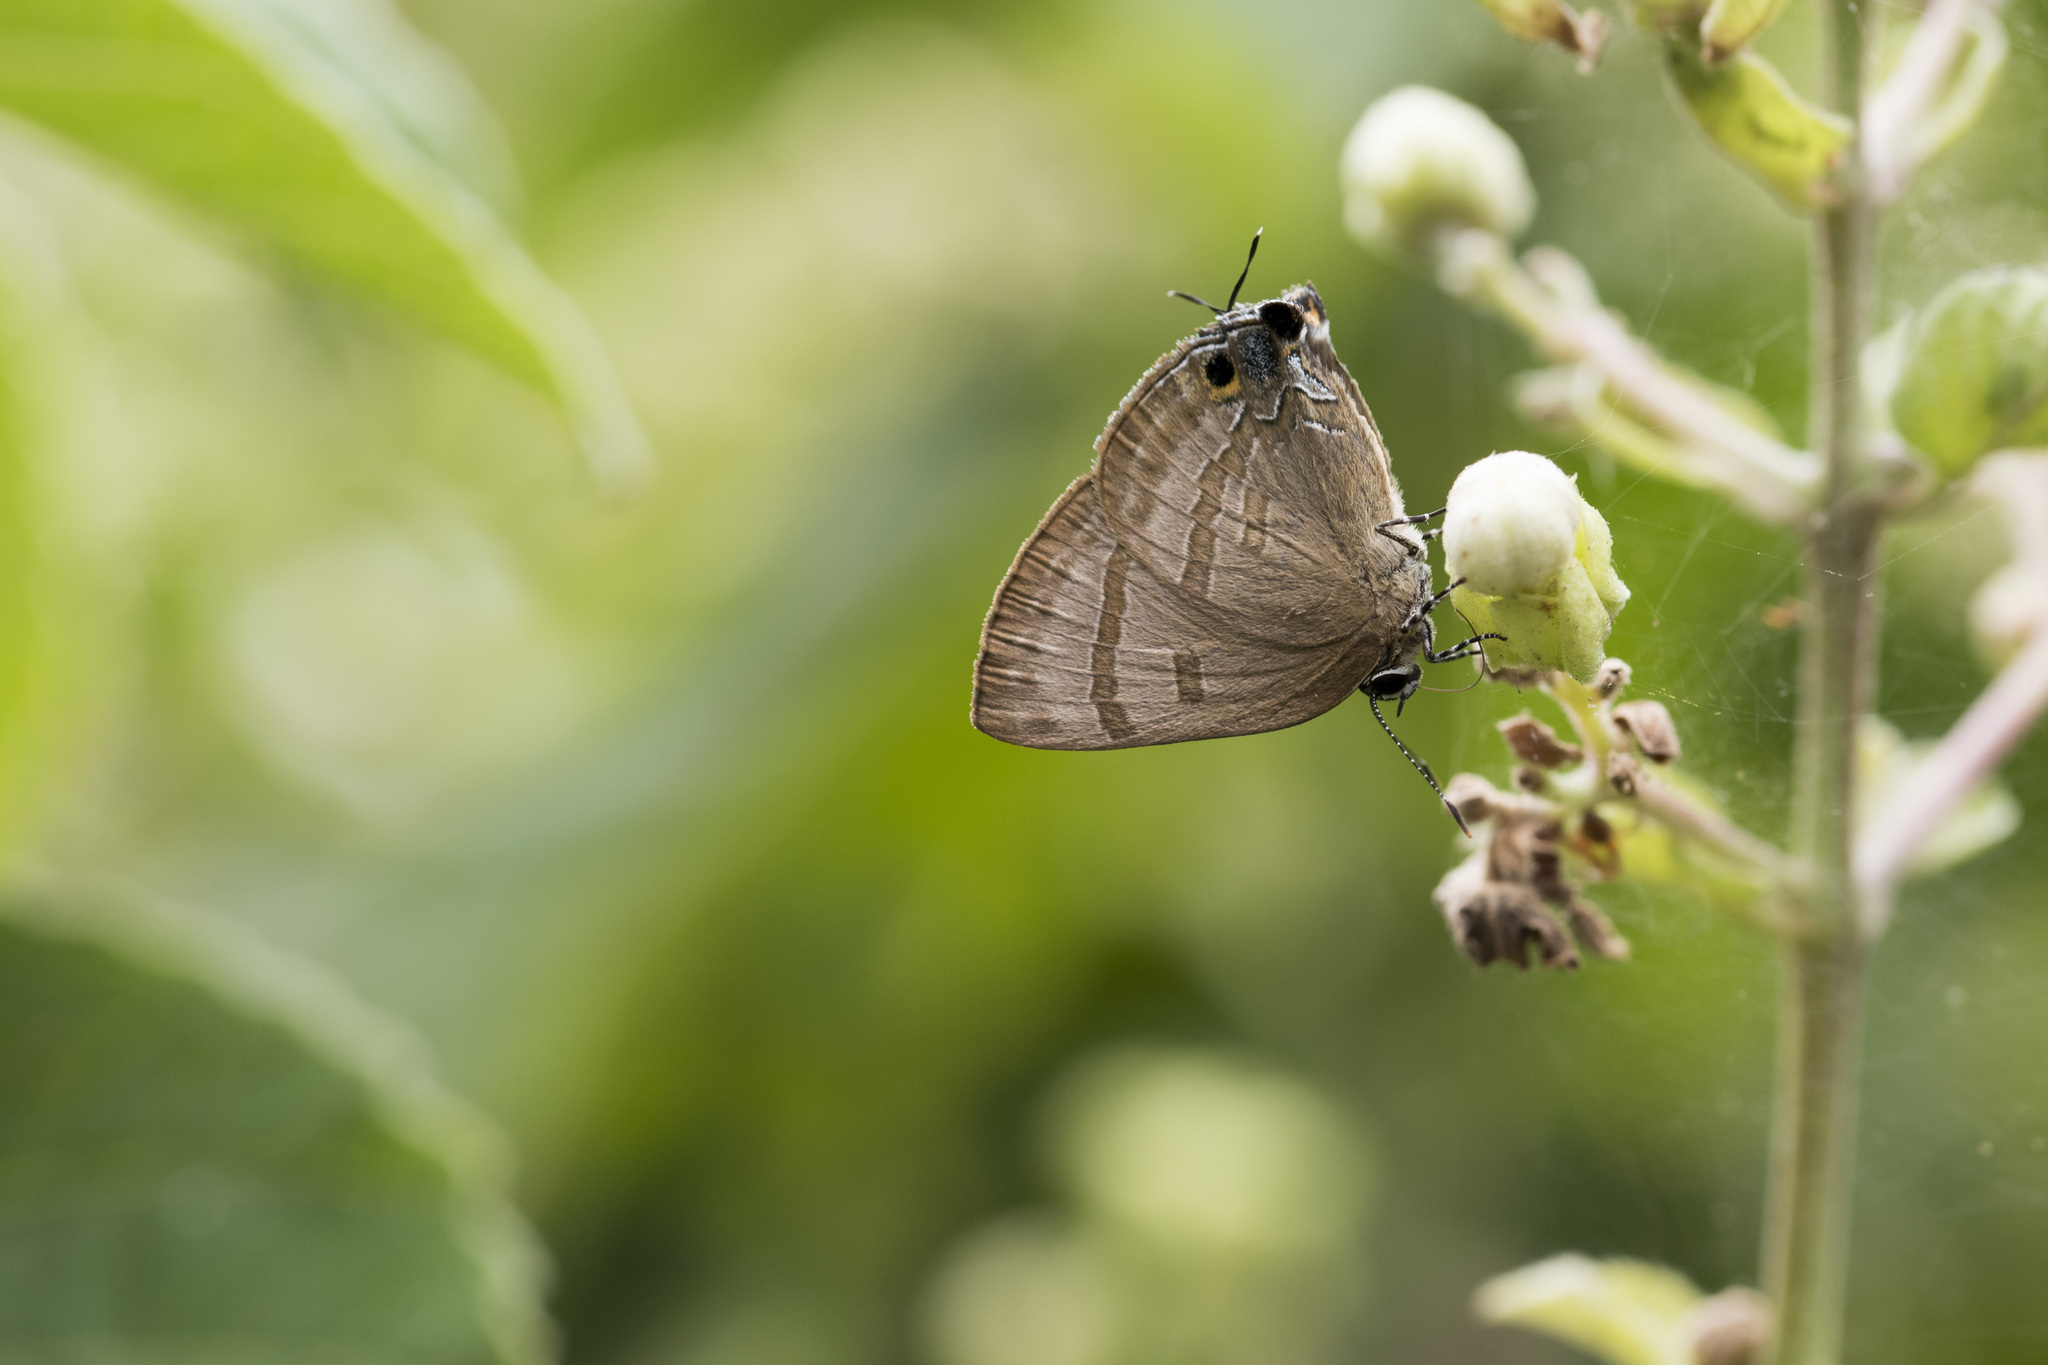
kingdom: Animalia
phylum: Arthropoda
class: Insecta
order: Lepidoptera
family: Lycaenidae
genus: Rapala
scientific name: Rapala varuna
